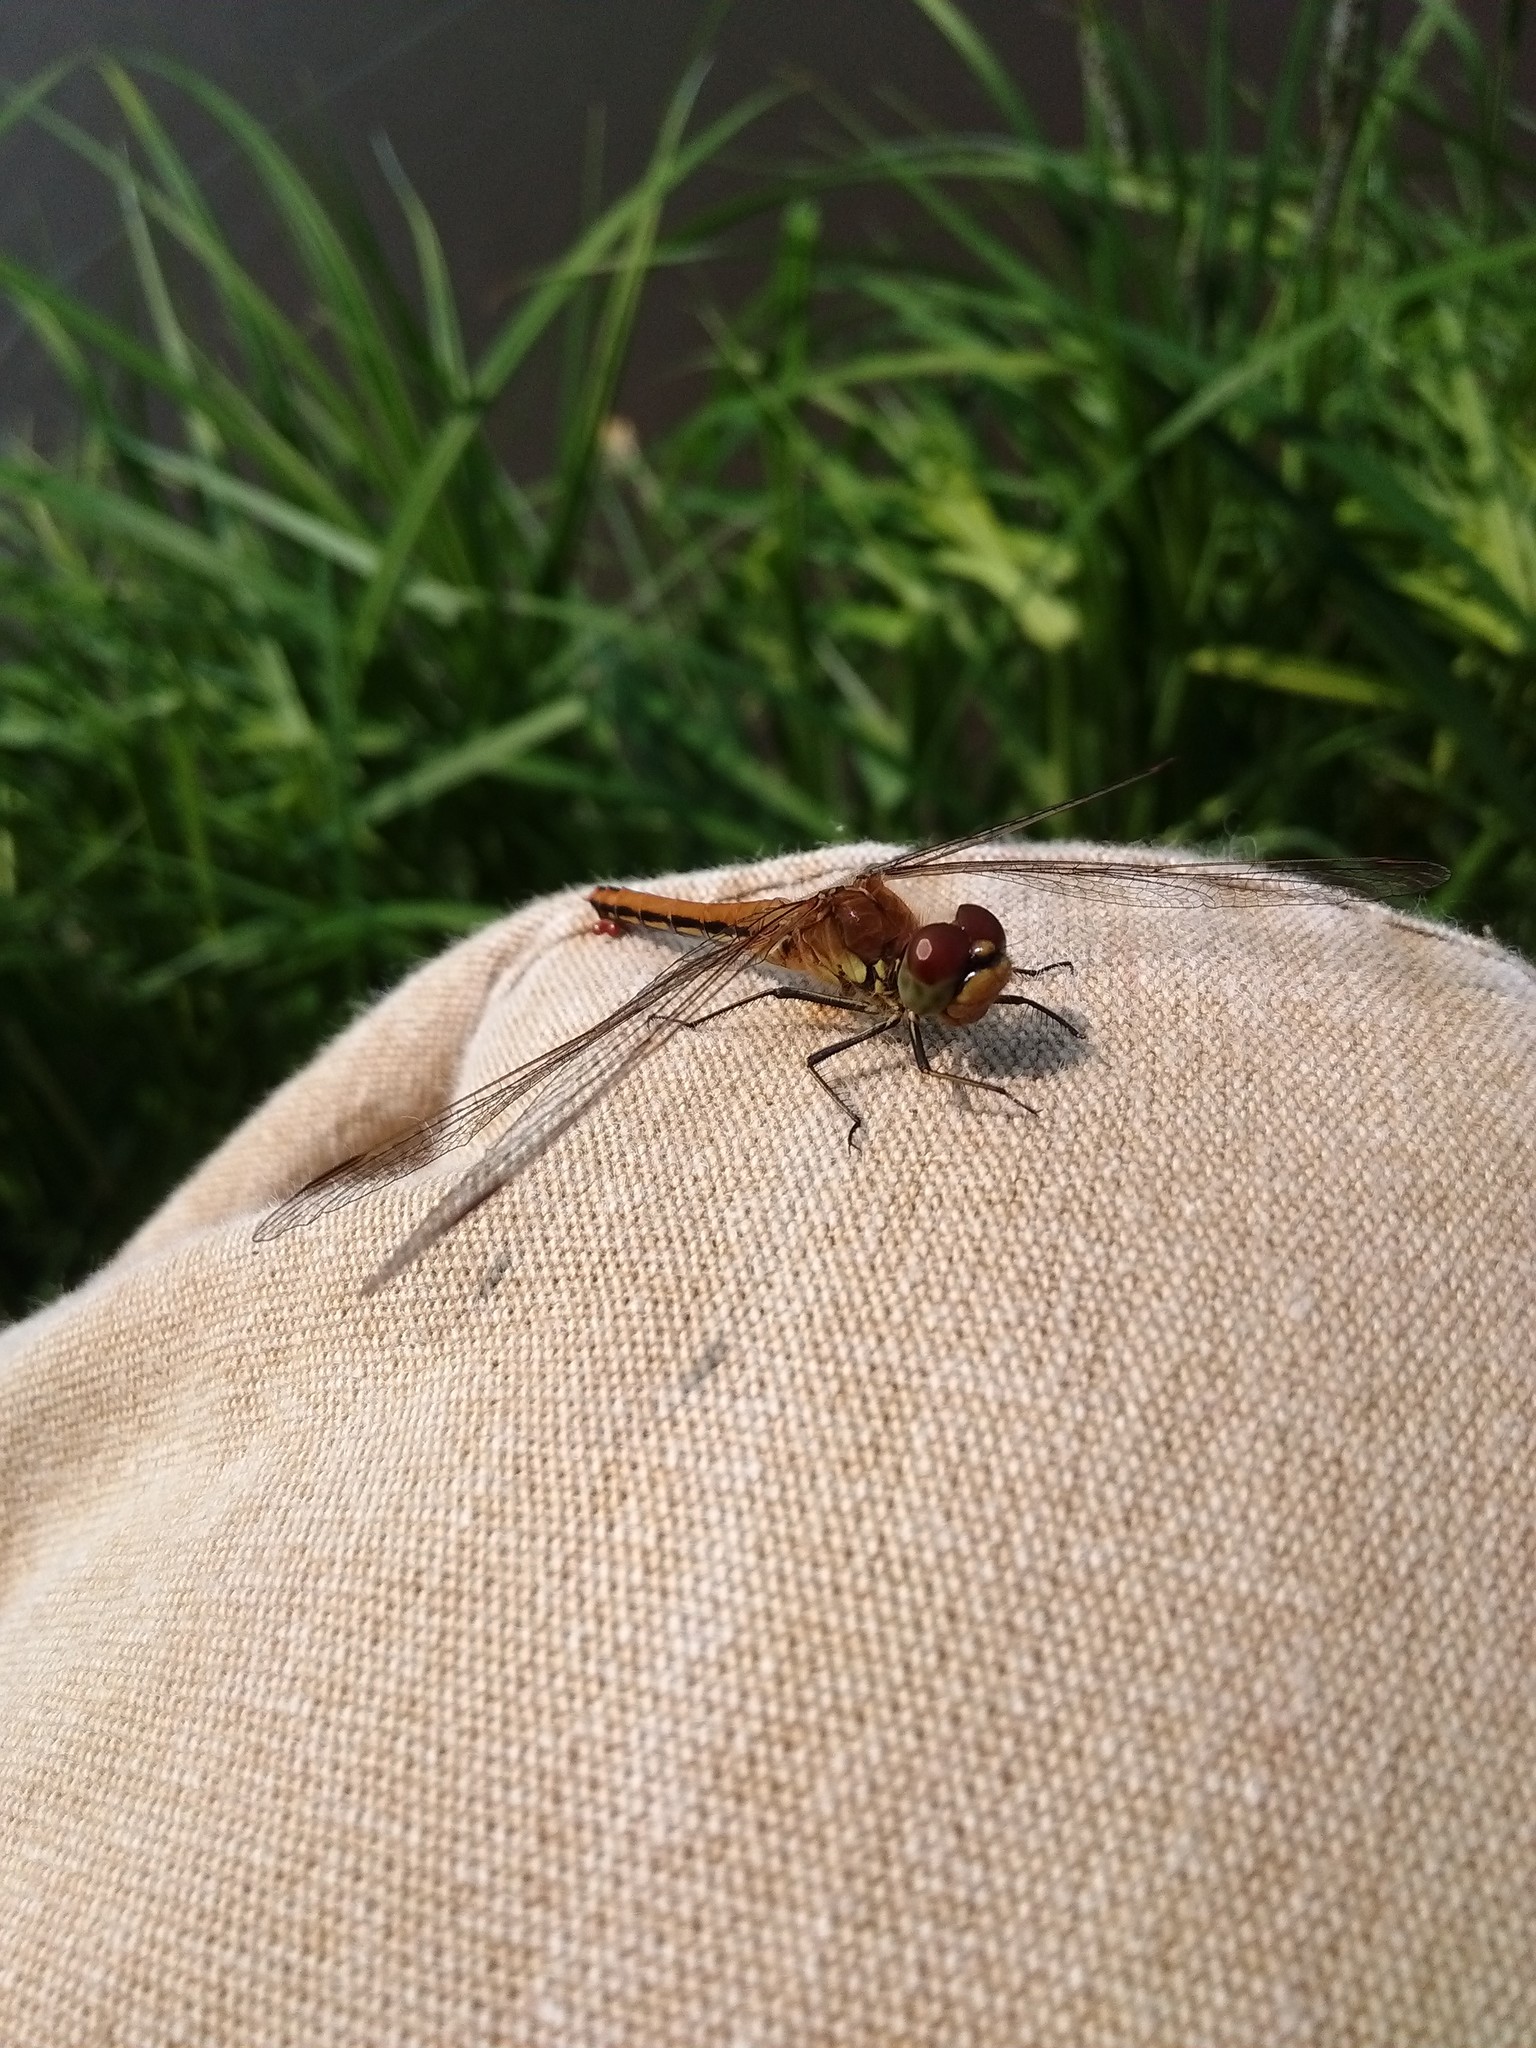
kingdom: Animalia
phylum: Arthropoda
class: Insecta
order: Odonata
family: Libellulidae
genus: Sympetrum
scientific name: Sympetrum flaveolum
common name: Yellow-winged darter
